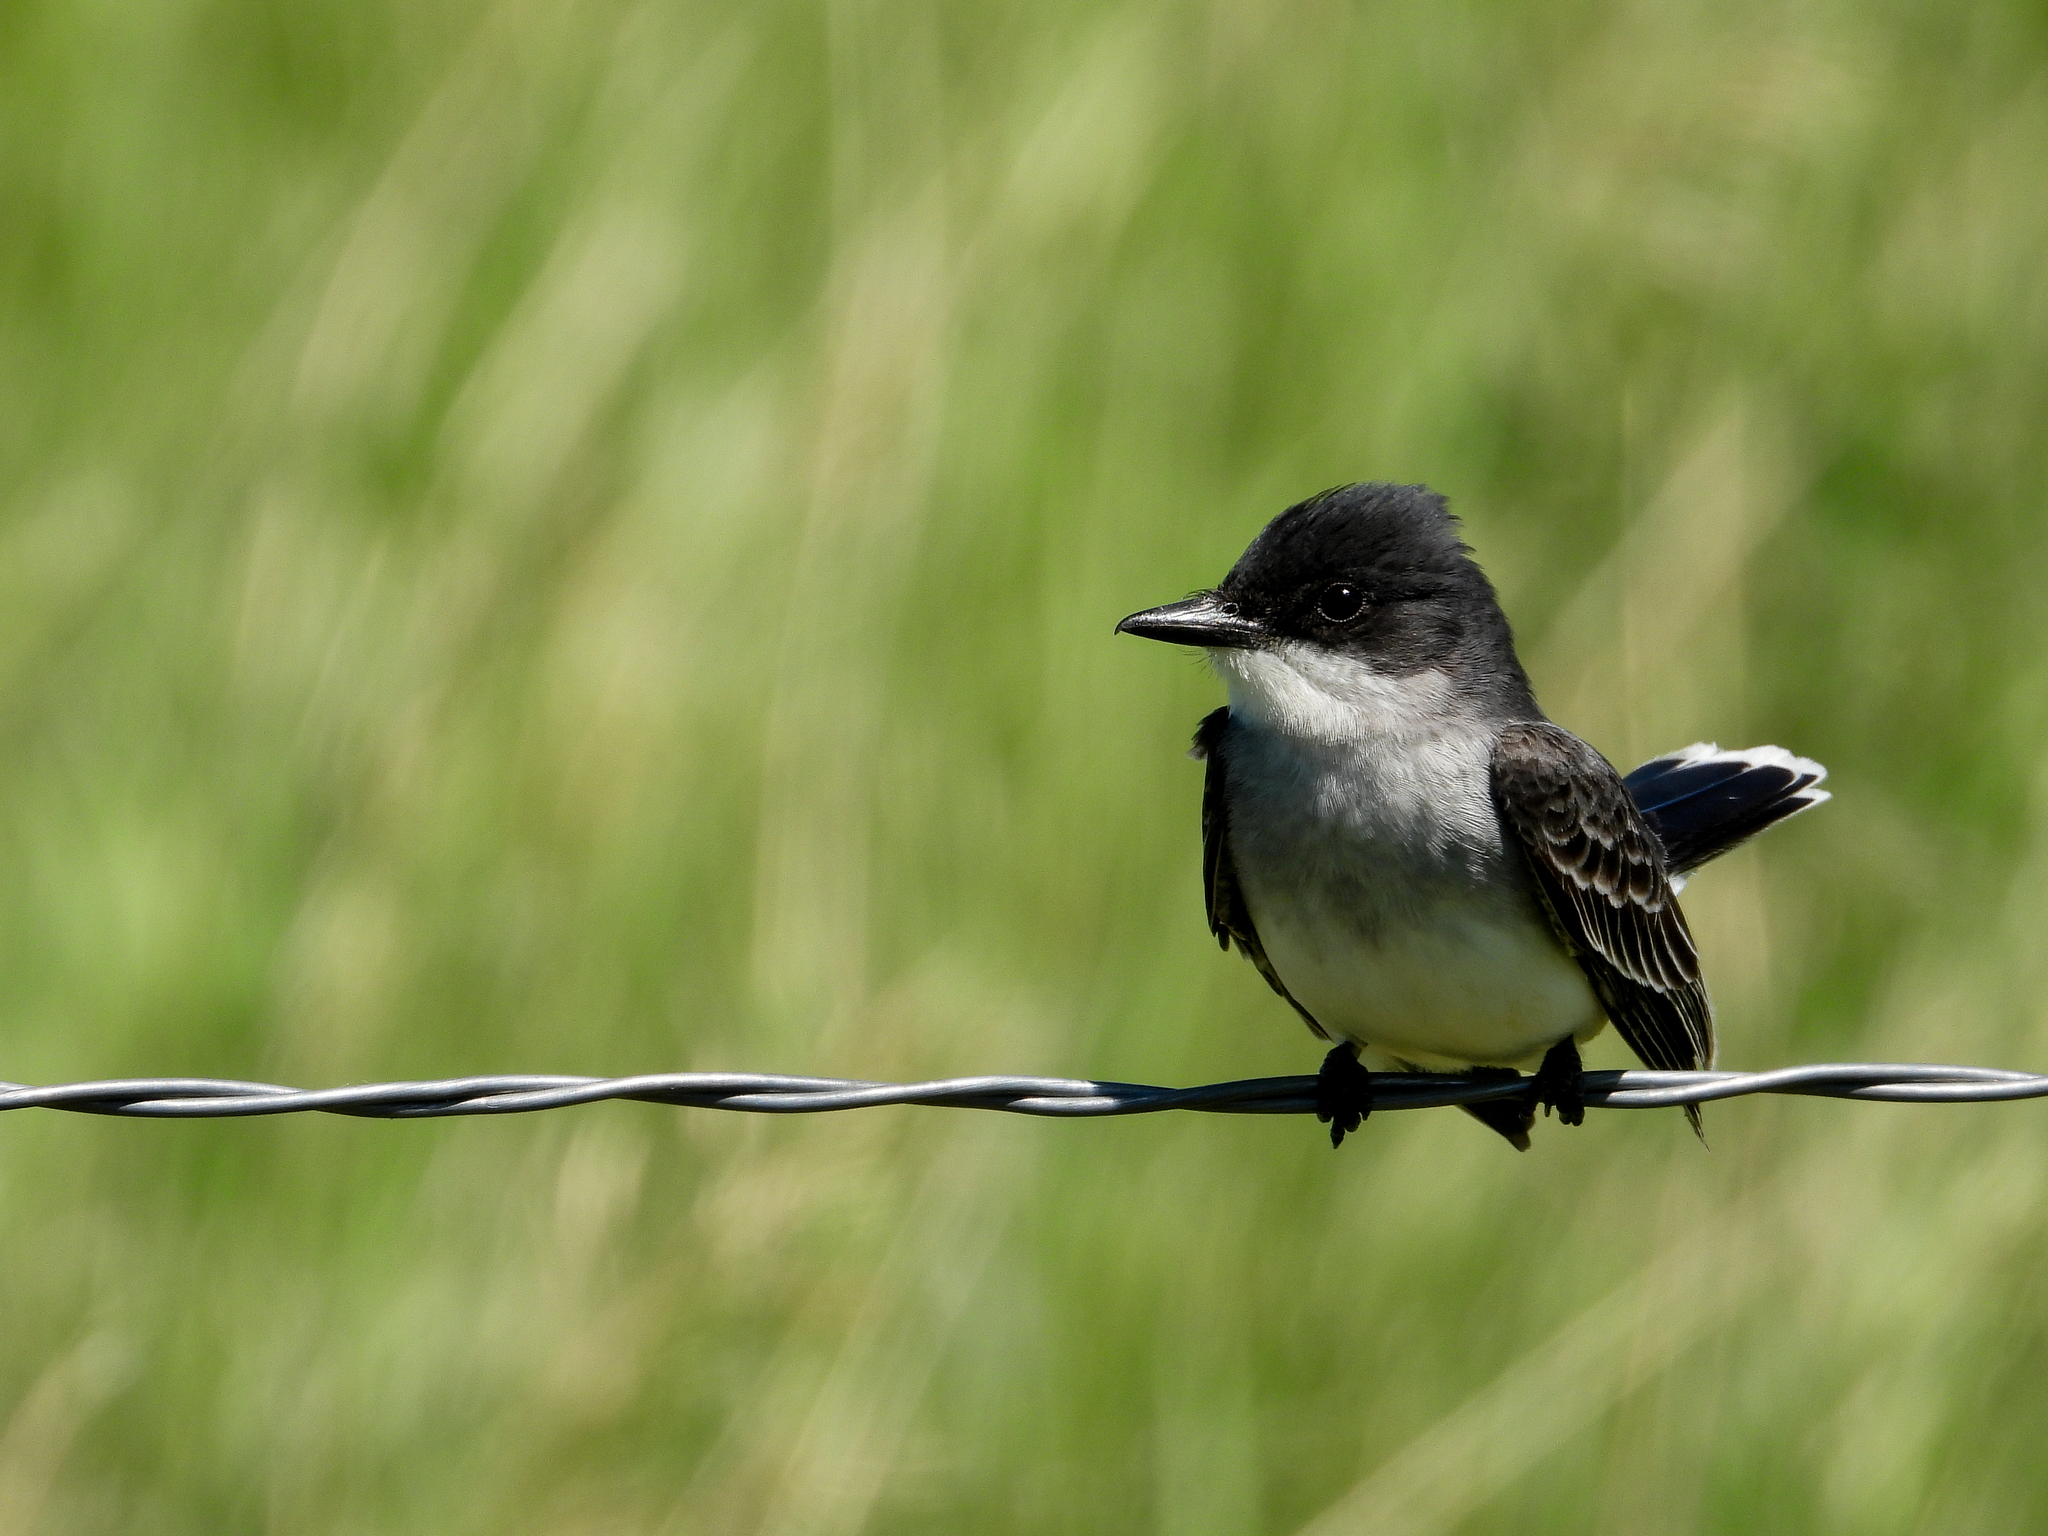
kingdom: Animalia
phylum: Chordata
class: Aves
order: Passeriformes
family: Tyrannidae
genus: Tyrannus
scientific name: Tyrannus tyrannus
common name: Eastern kingbird
